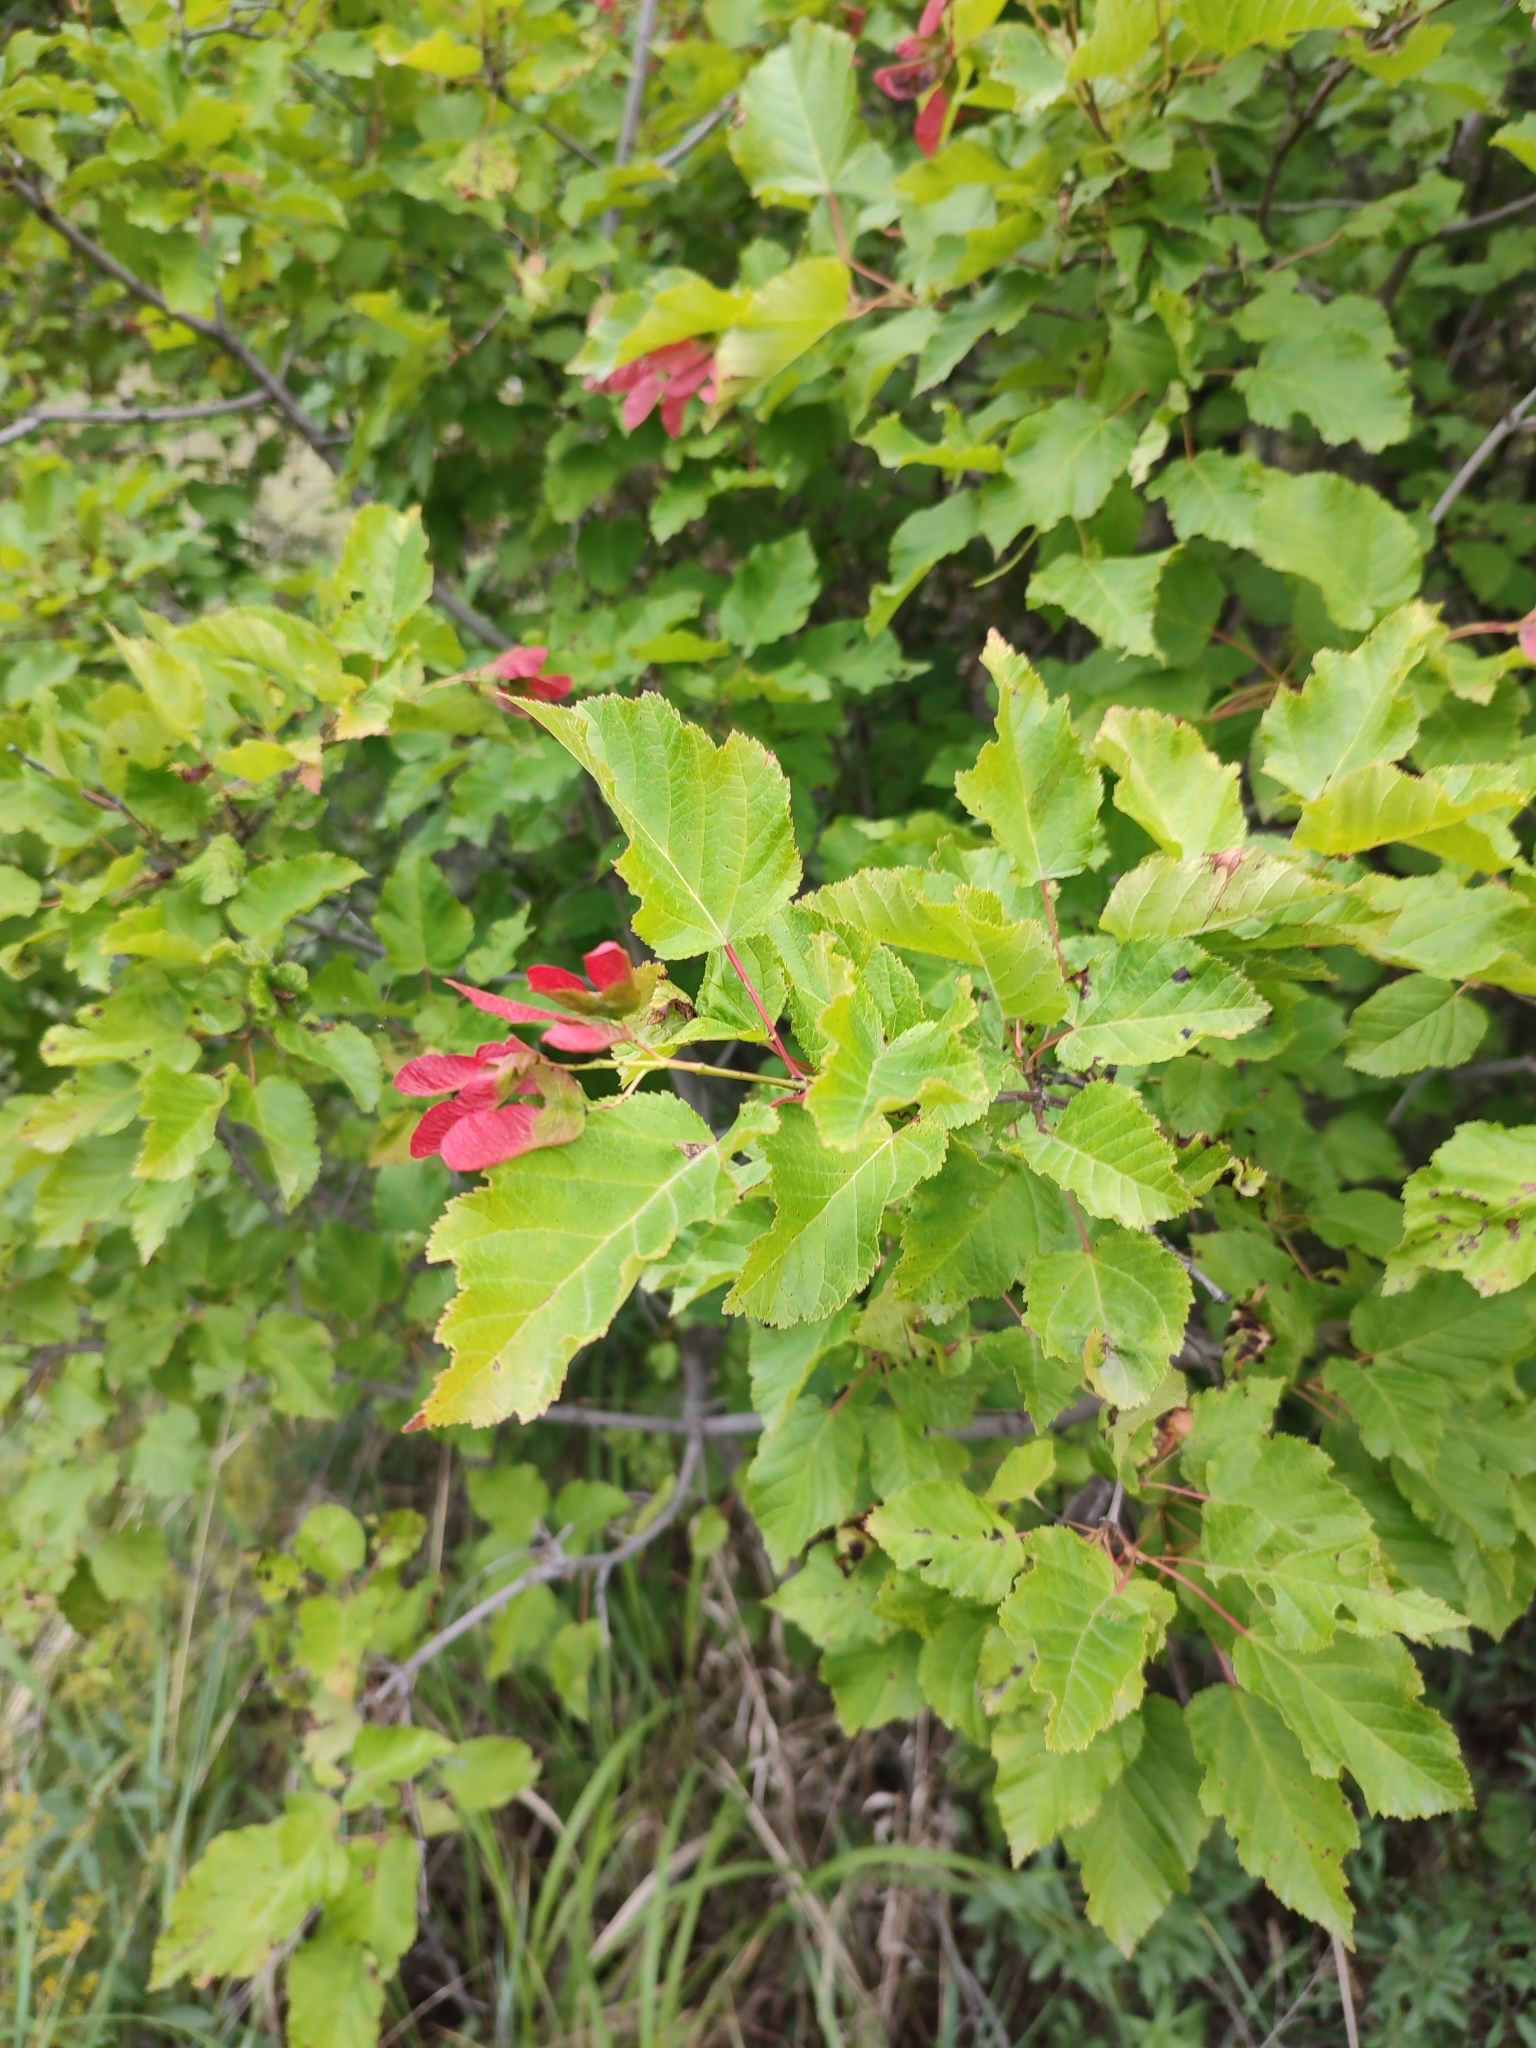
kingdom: Plantae
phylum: Tracheophyta
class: Magnoliopsida
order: Sapindales
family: Sapindaceae
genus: Acer
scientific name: Acer tataricum
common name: Tartar maple
